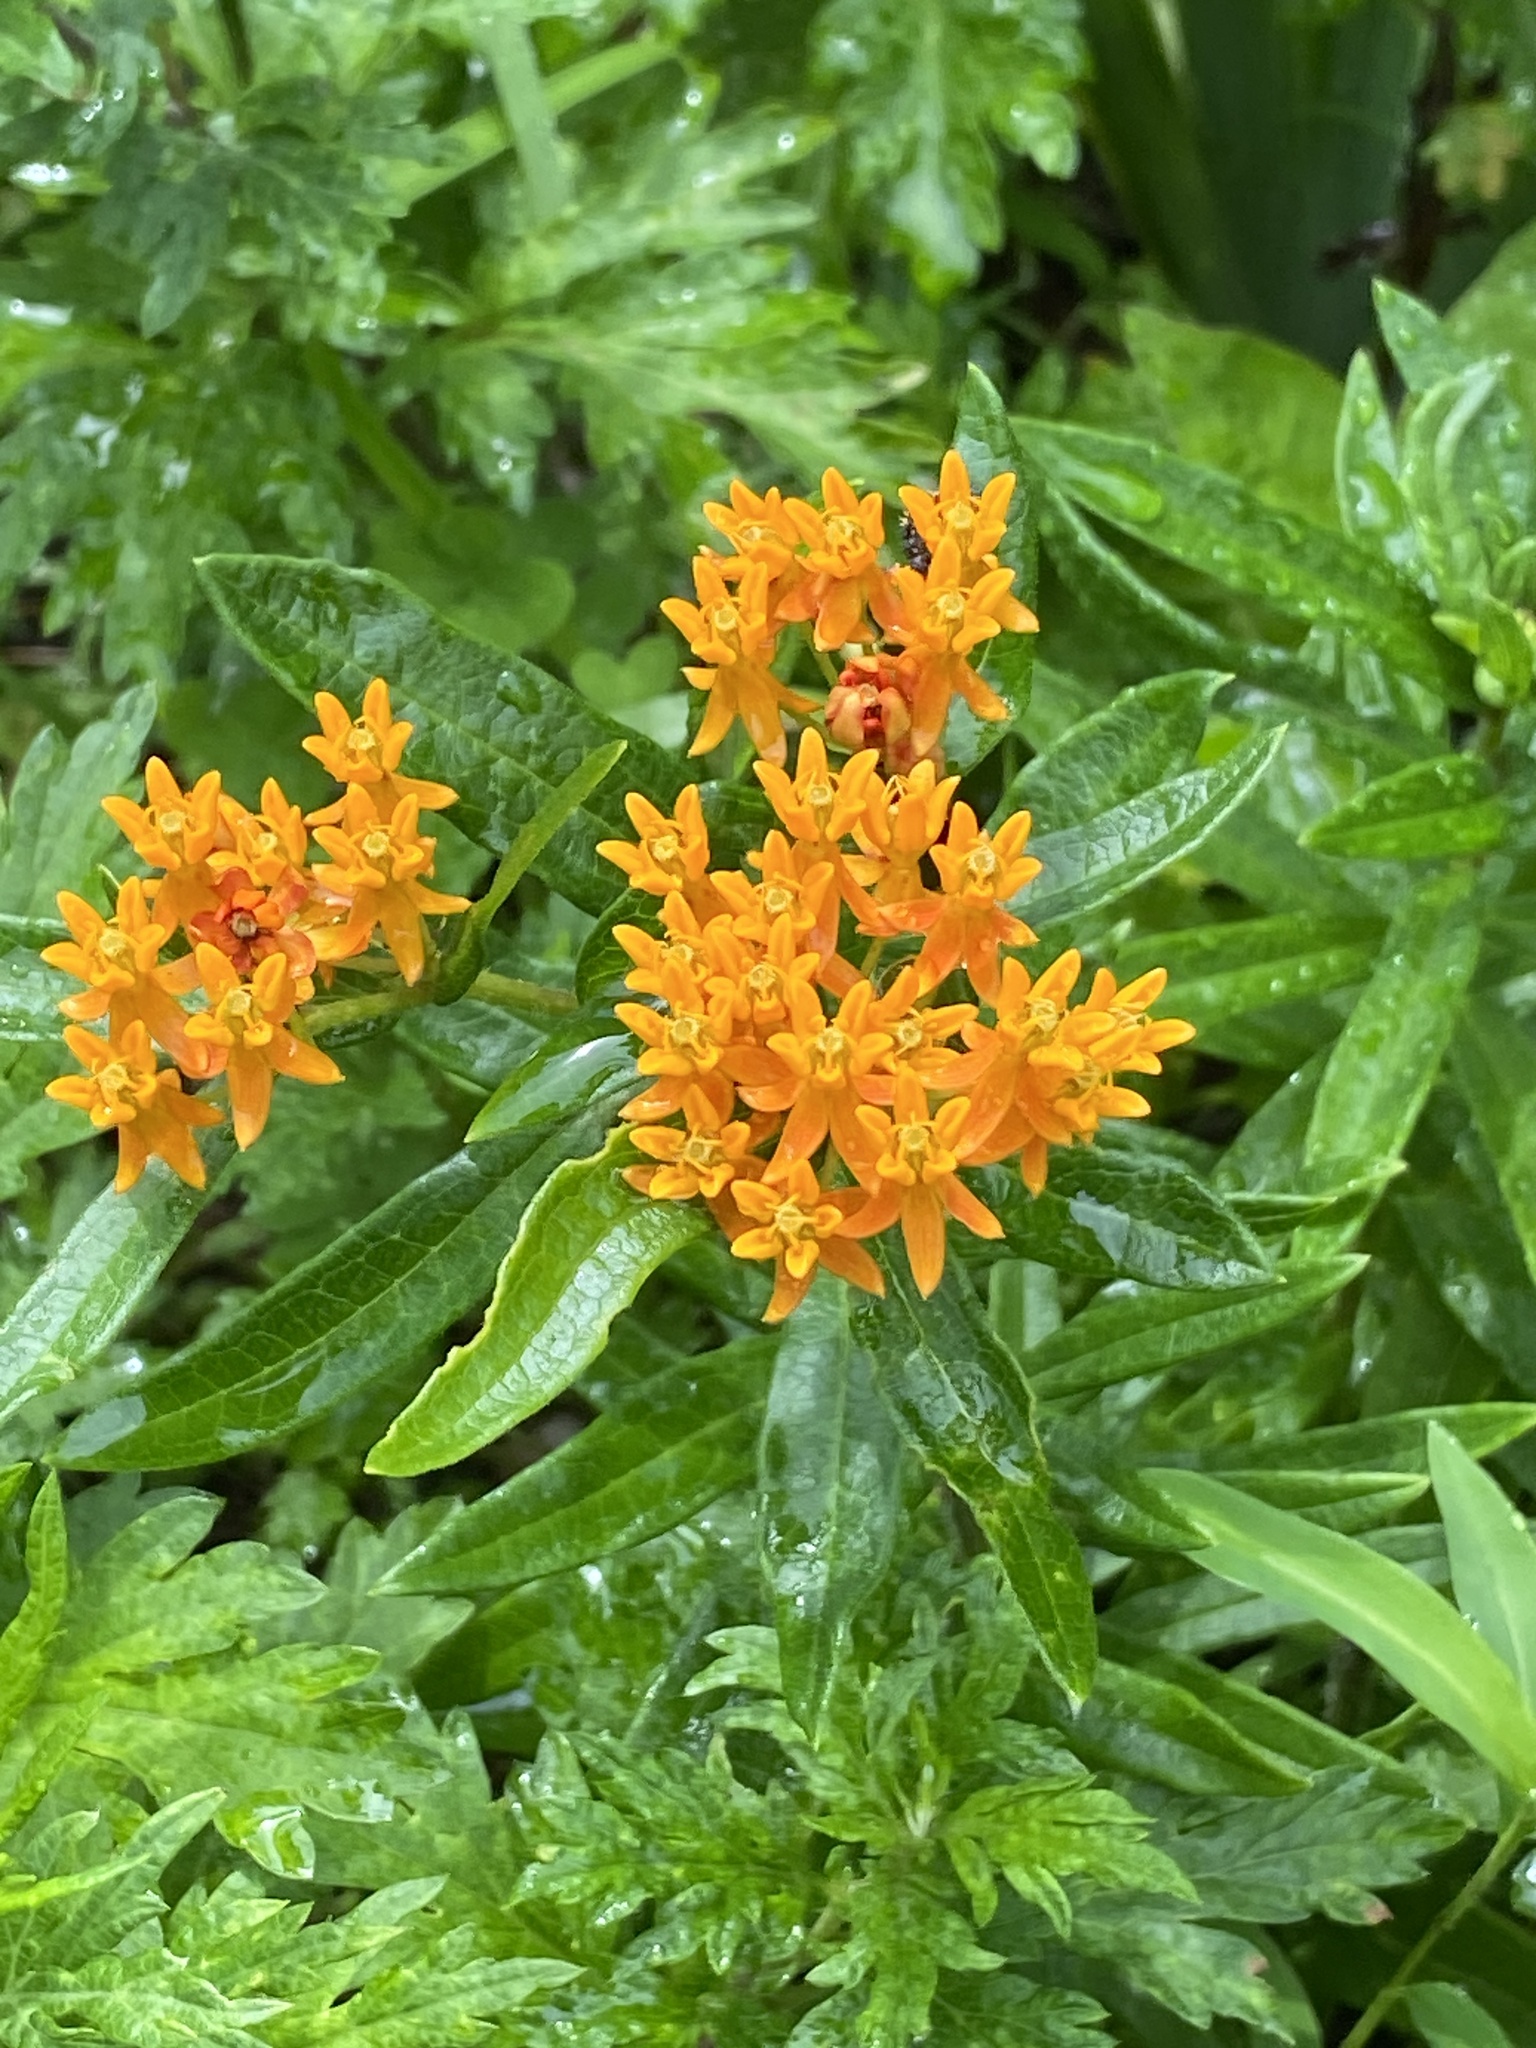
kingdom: Plantae
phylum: Tracheophyta
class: Magnoliopsida
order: Gentianales
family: Apocynaceae
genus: Asclepias
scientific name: Asclepias tuberosa
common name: Butterfly milkweed
